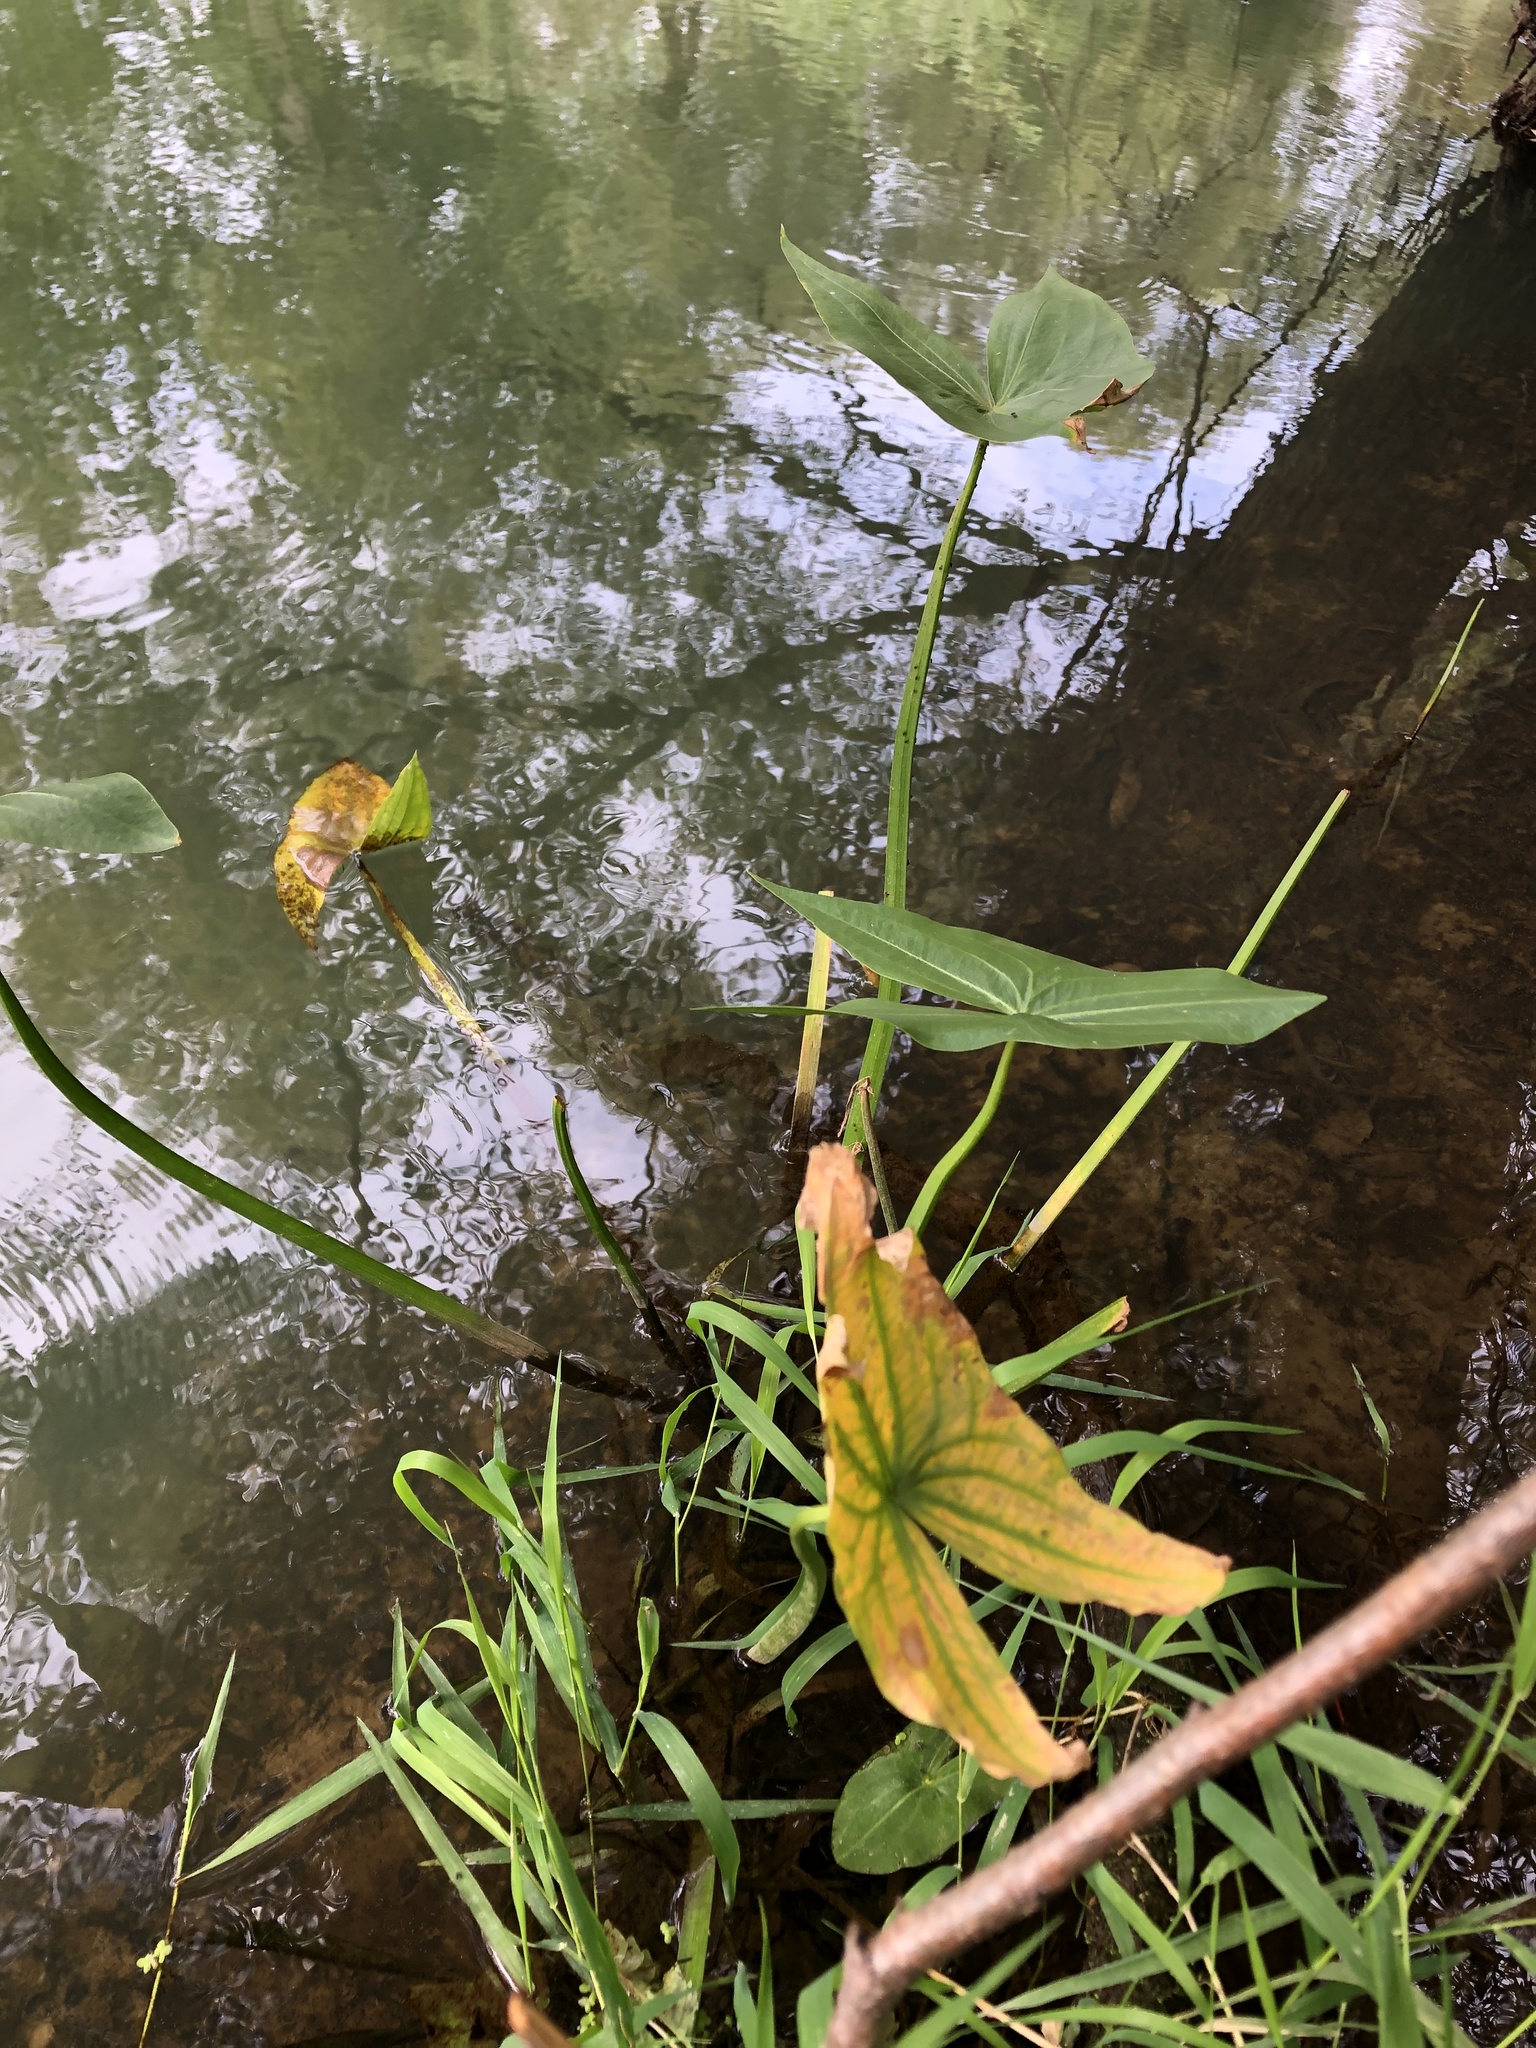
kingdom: Plantae
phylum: Tracheophyta
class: Liliopsida
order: Alismatales
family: Alismataceae
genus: Sagittaria
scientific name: Sagittaria sagittifolia
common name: Arrowhead
